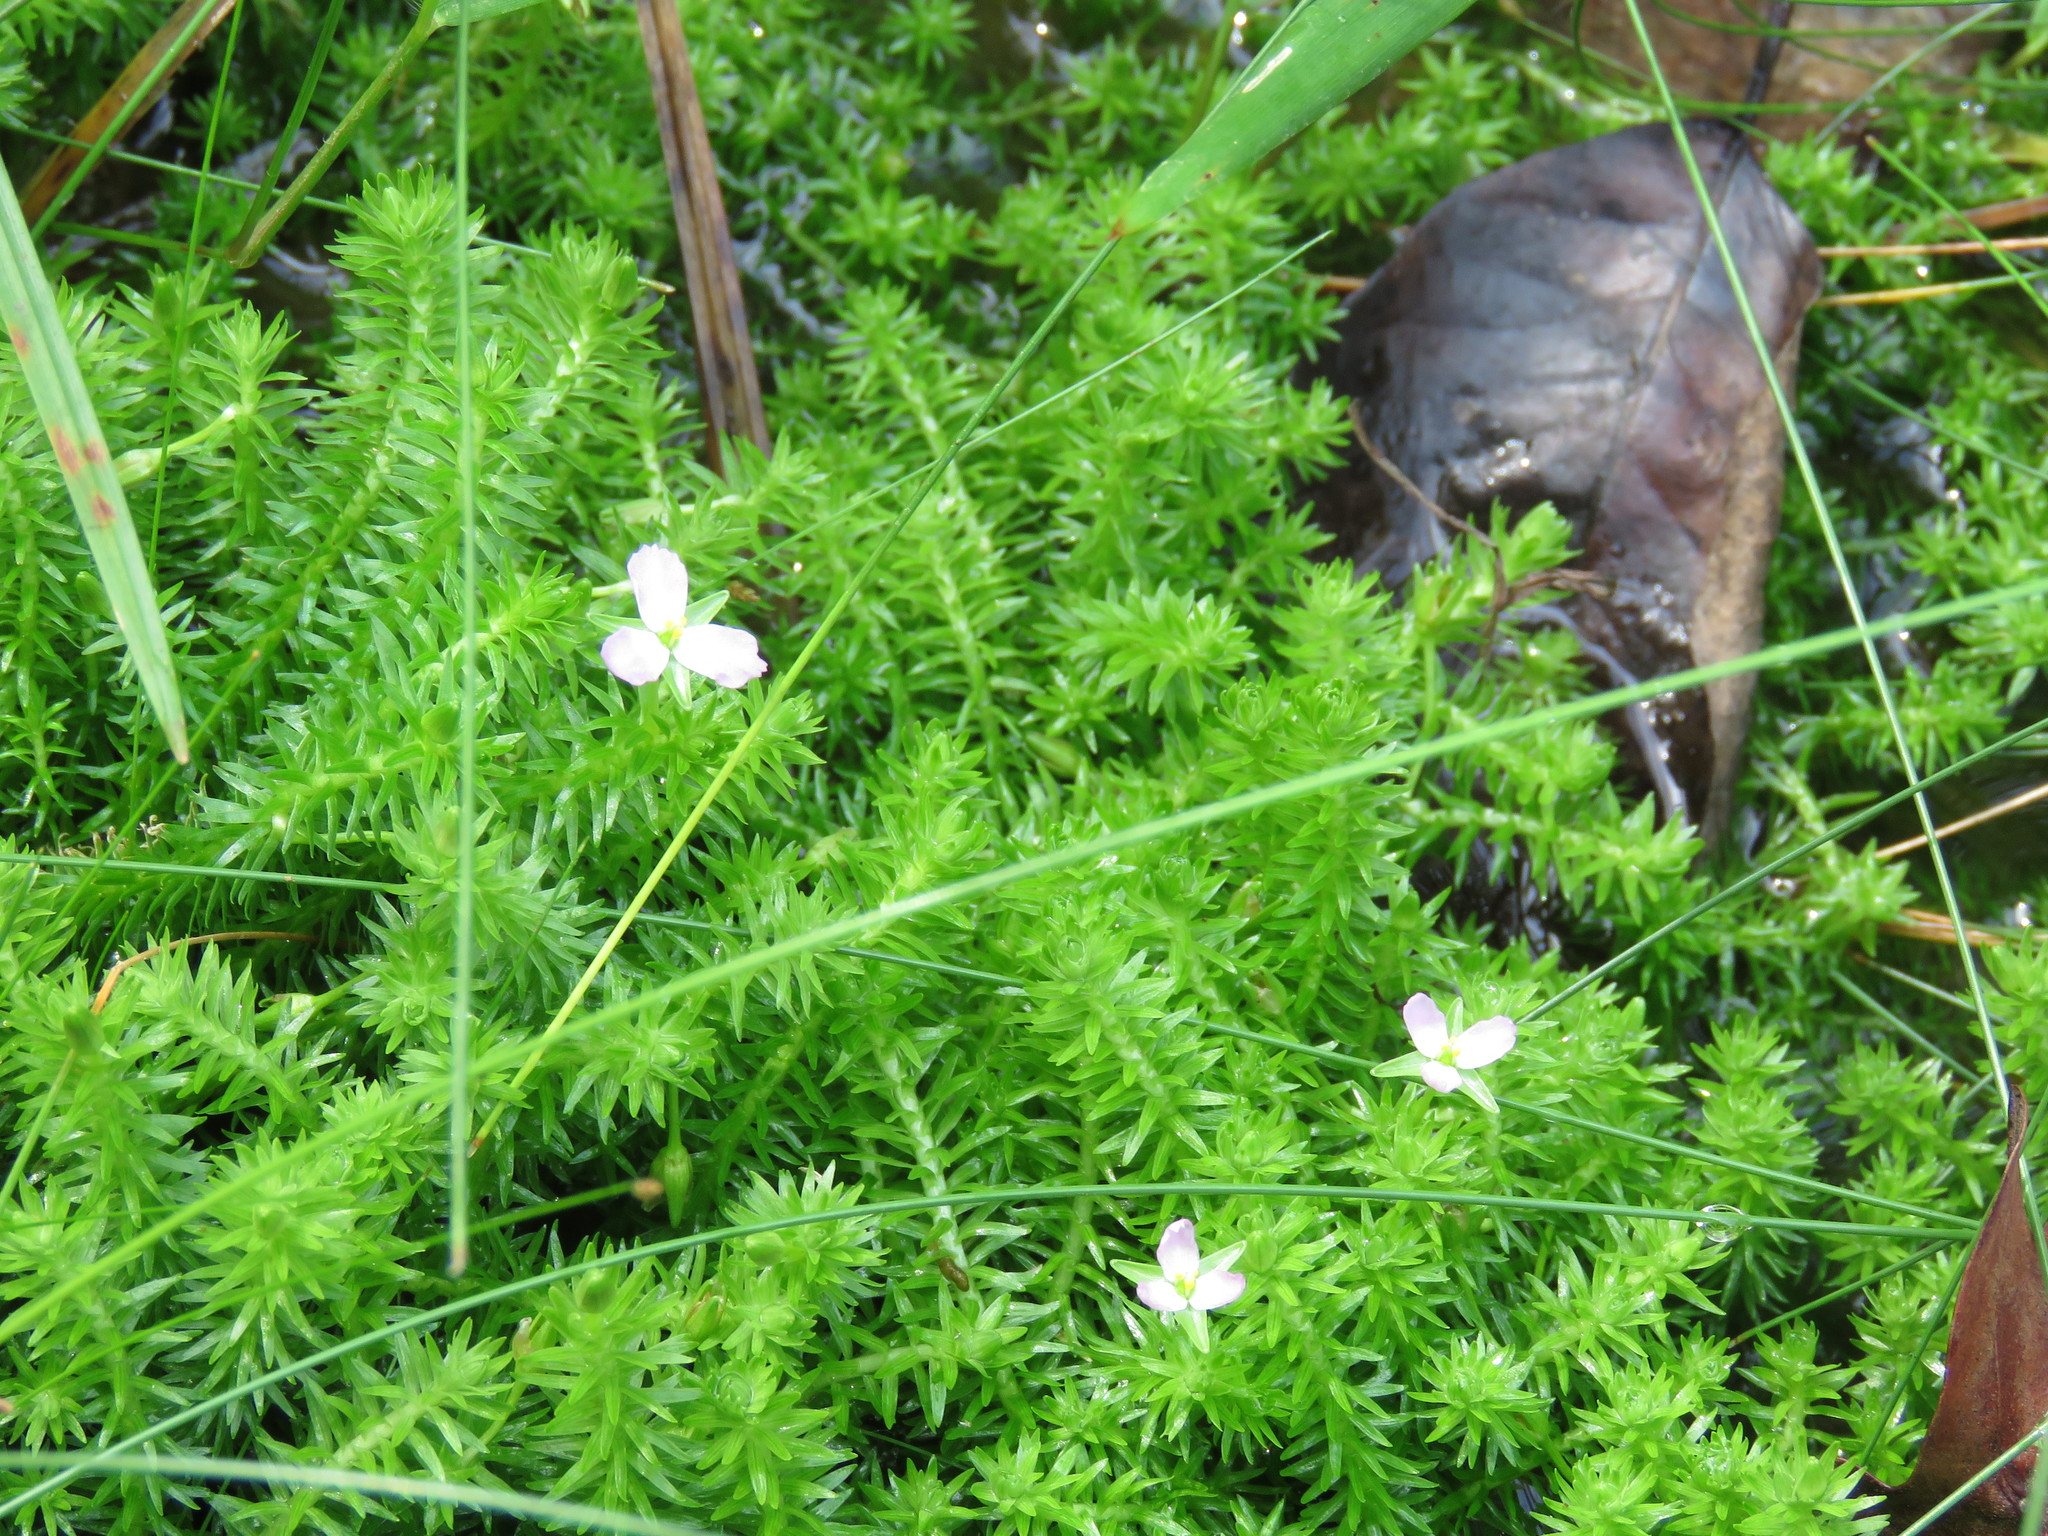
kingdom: Plantae
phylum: Tracheophyta
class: Liliopsida
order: Poales
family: Mayacaceae
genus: Mayaca
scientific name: Mayaca fluviatilis
